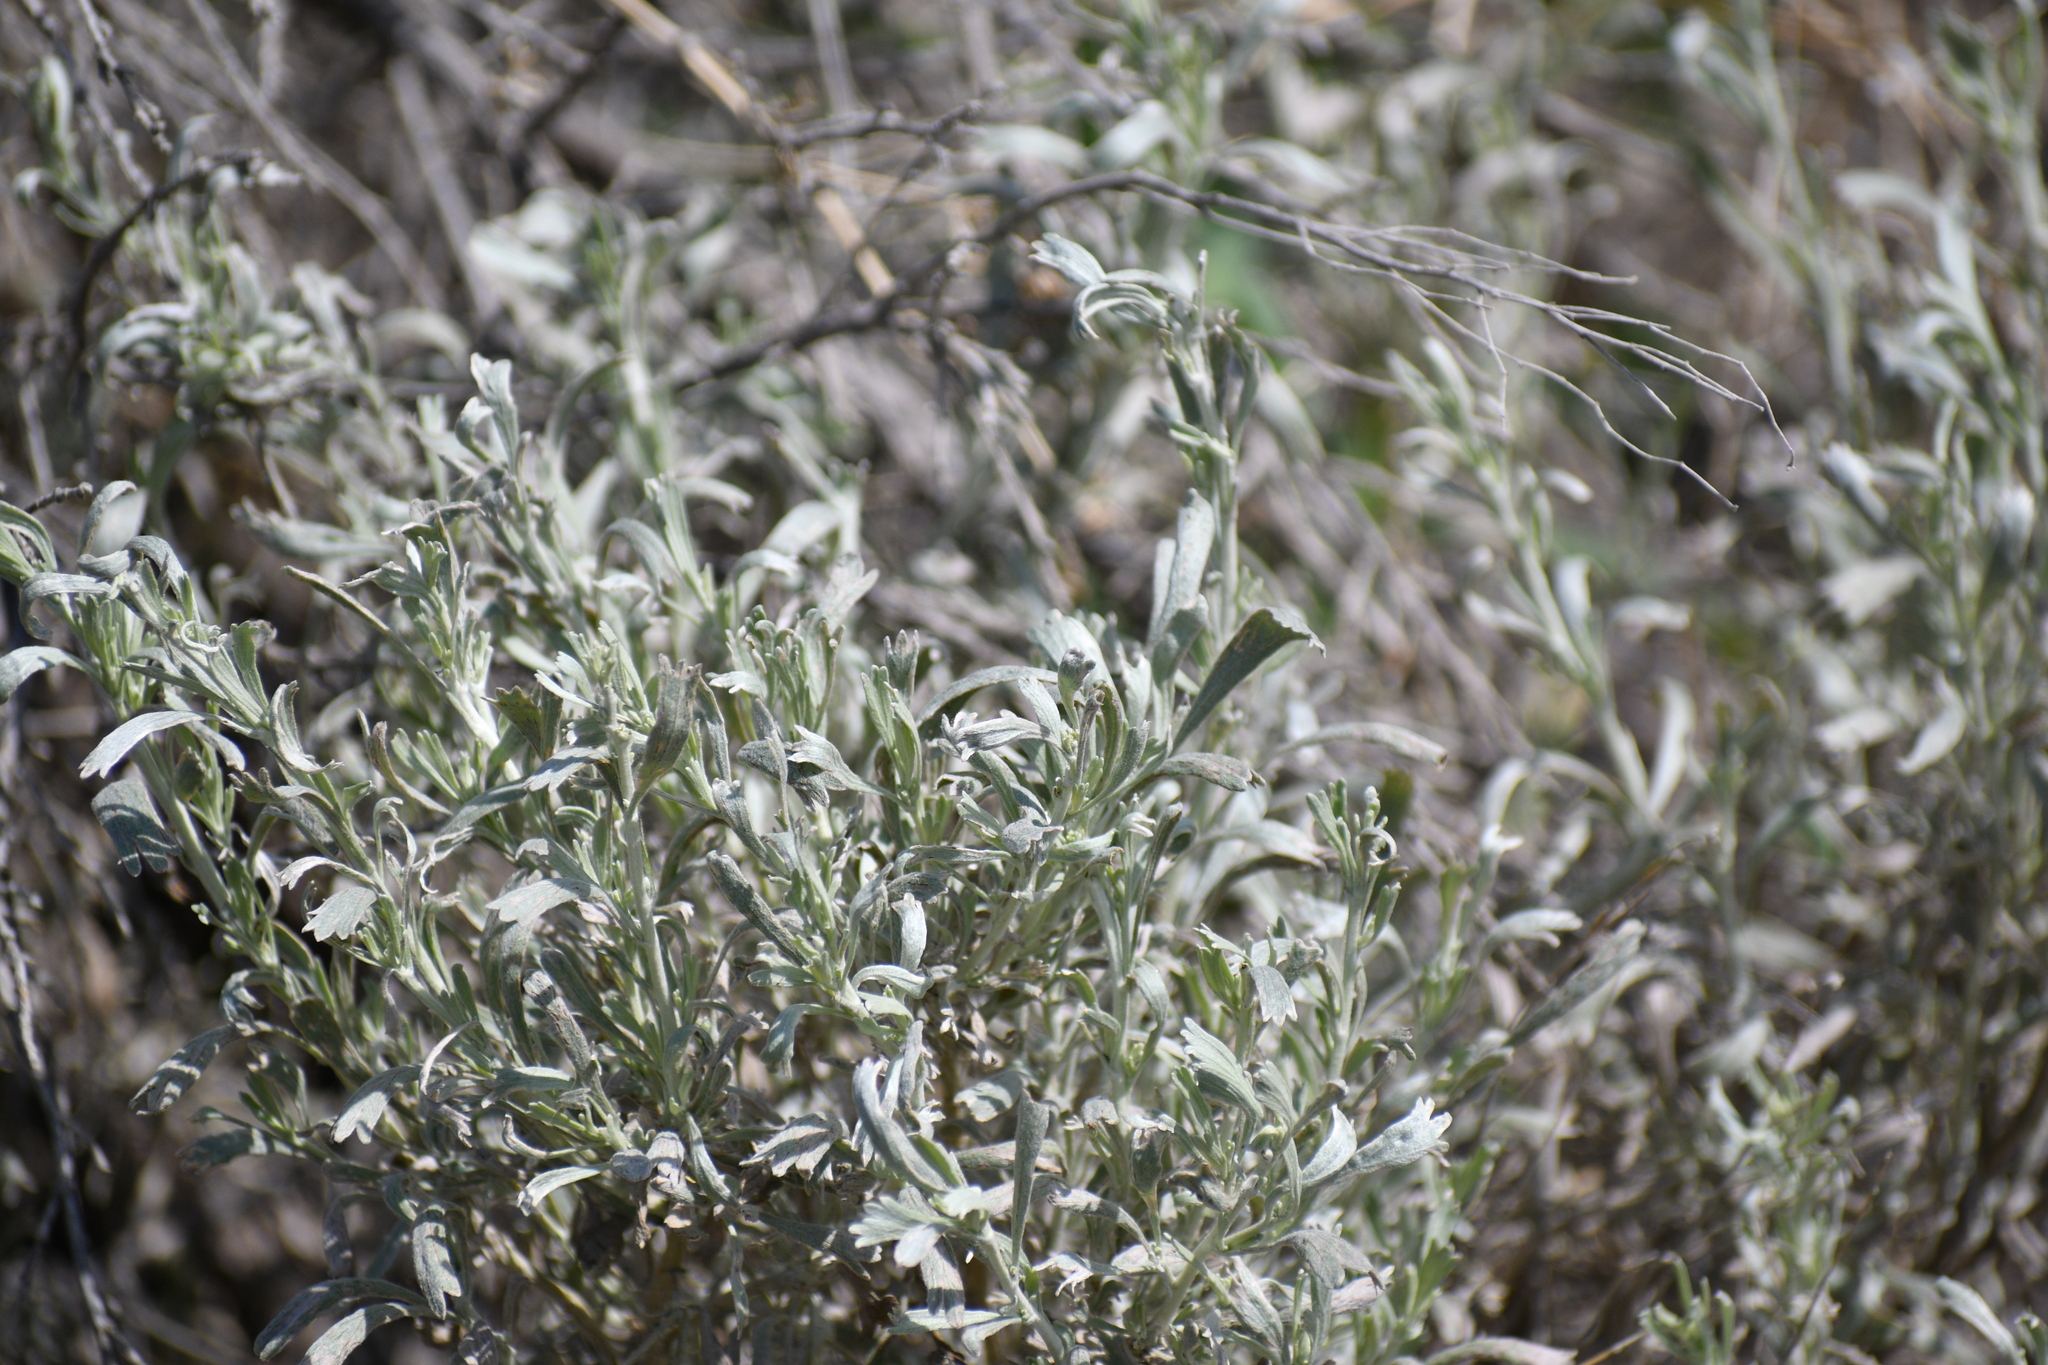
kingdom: Plantae
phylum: Tracheophyta
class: Magnoliopsida
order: Asterales
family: Asteraceae
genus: Artemisia
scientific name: Artemisia tridentata
